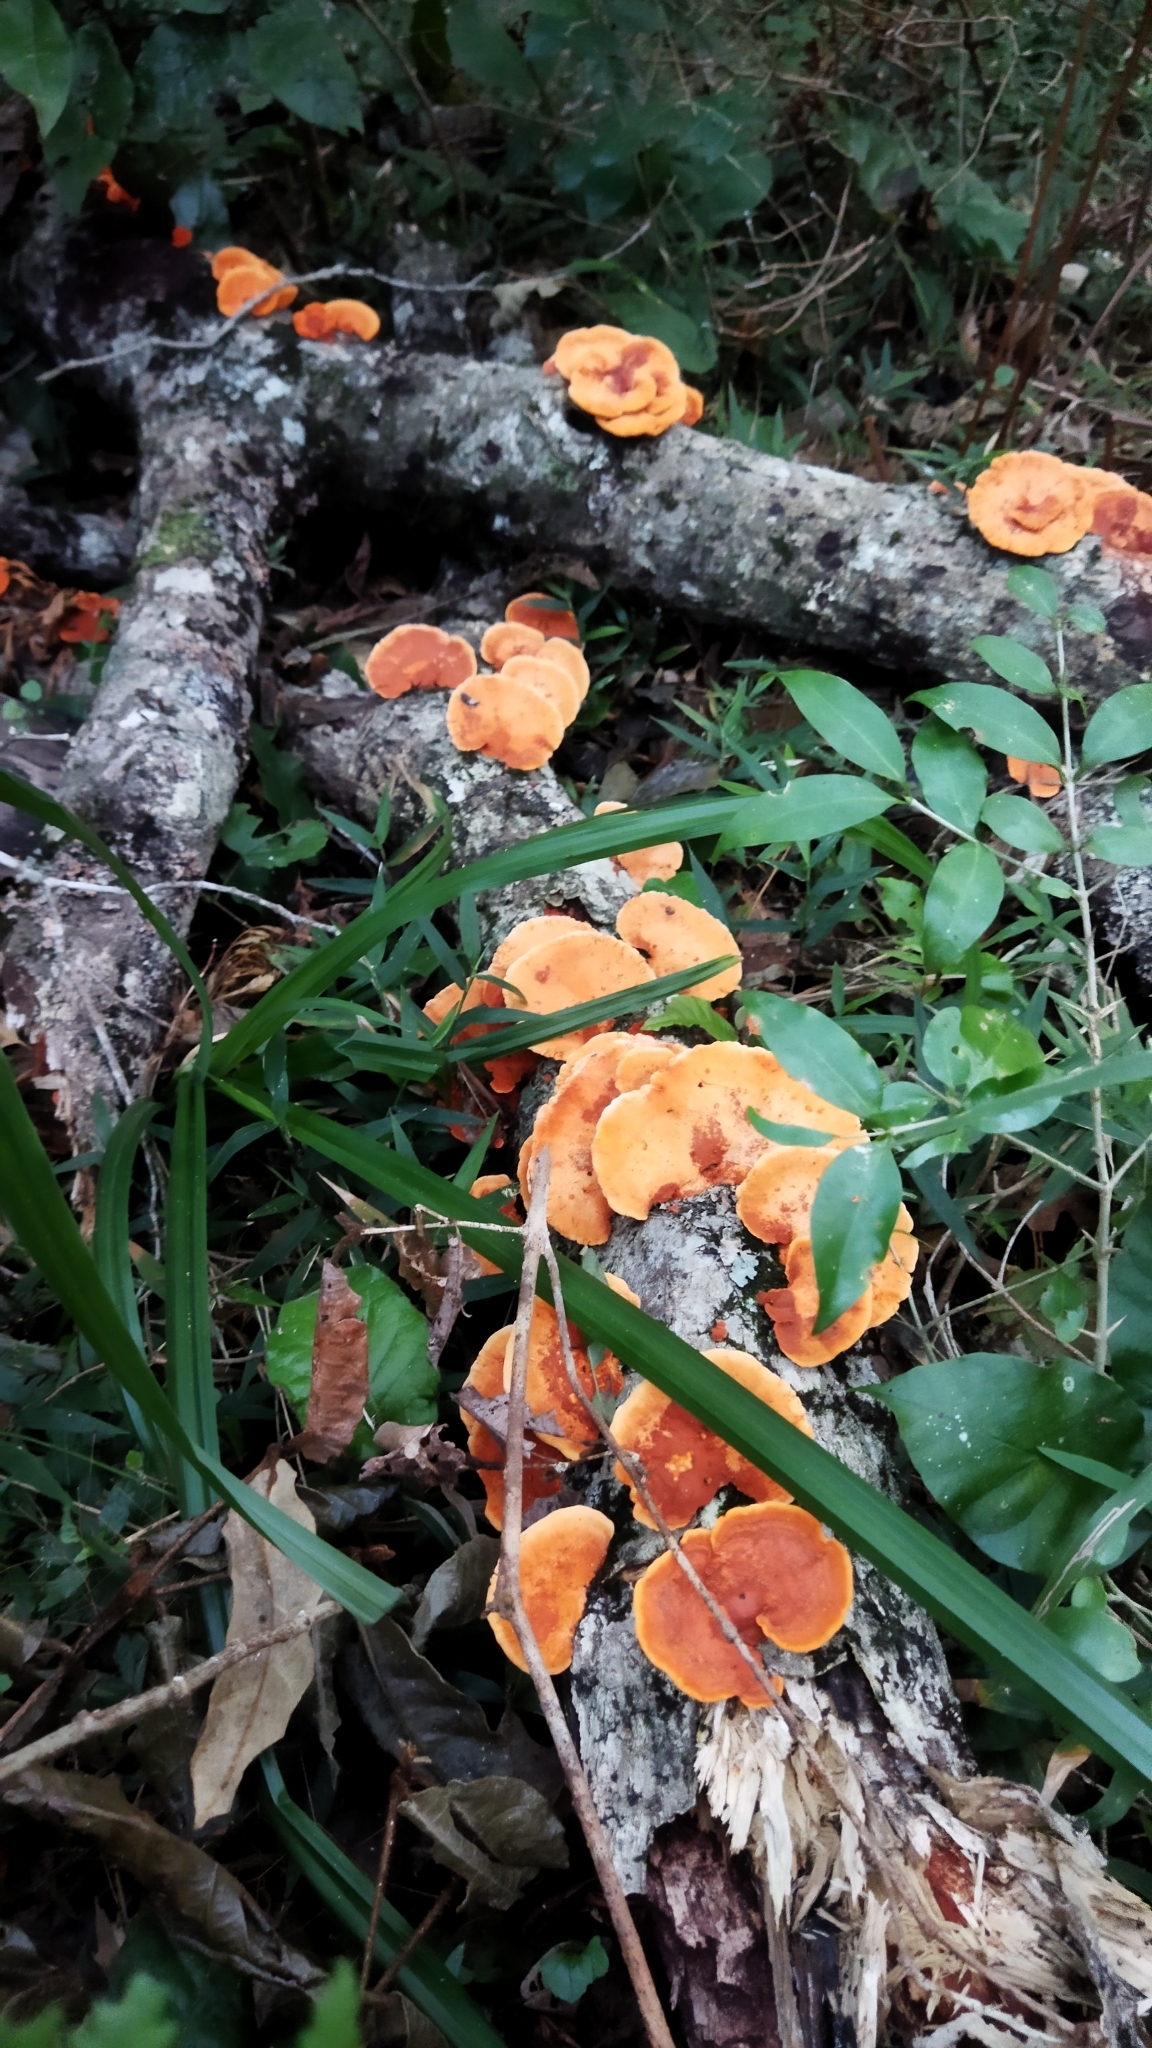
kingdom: Fungi
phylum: Basidiomycota
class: Agaricomycetes
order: Polyporales
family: Polyporaceae
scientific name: Polyporaceae
